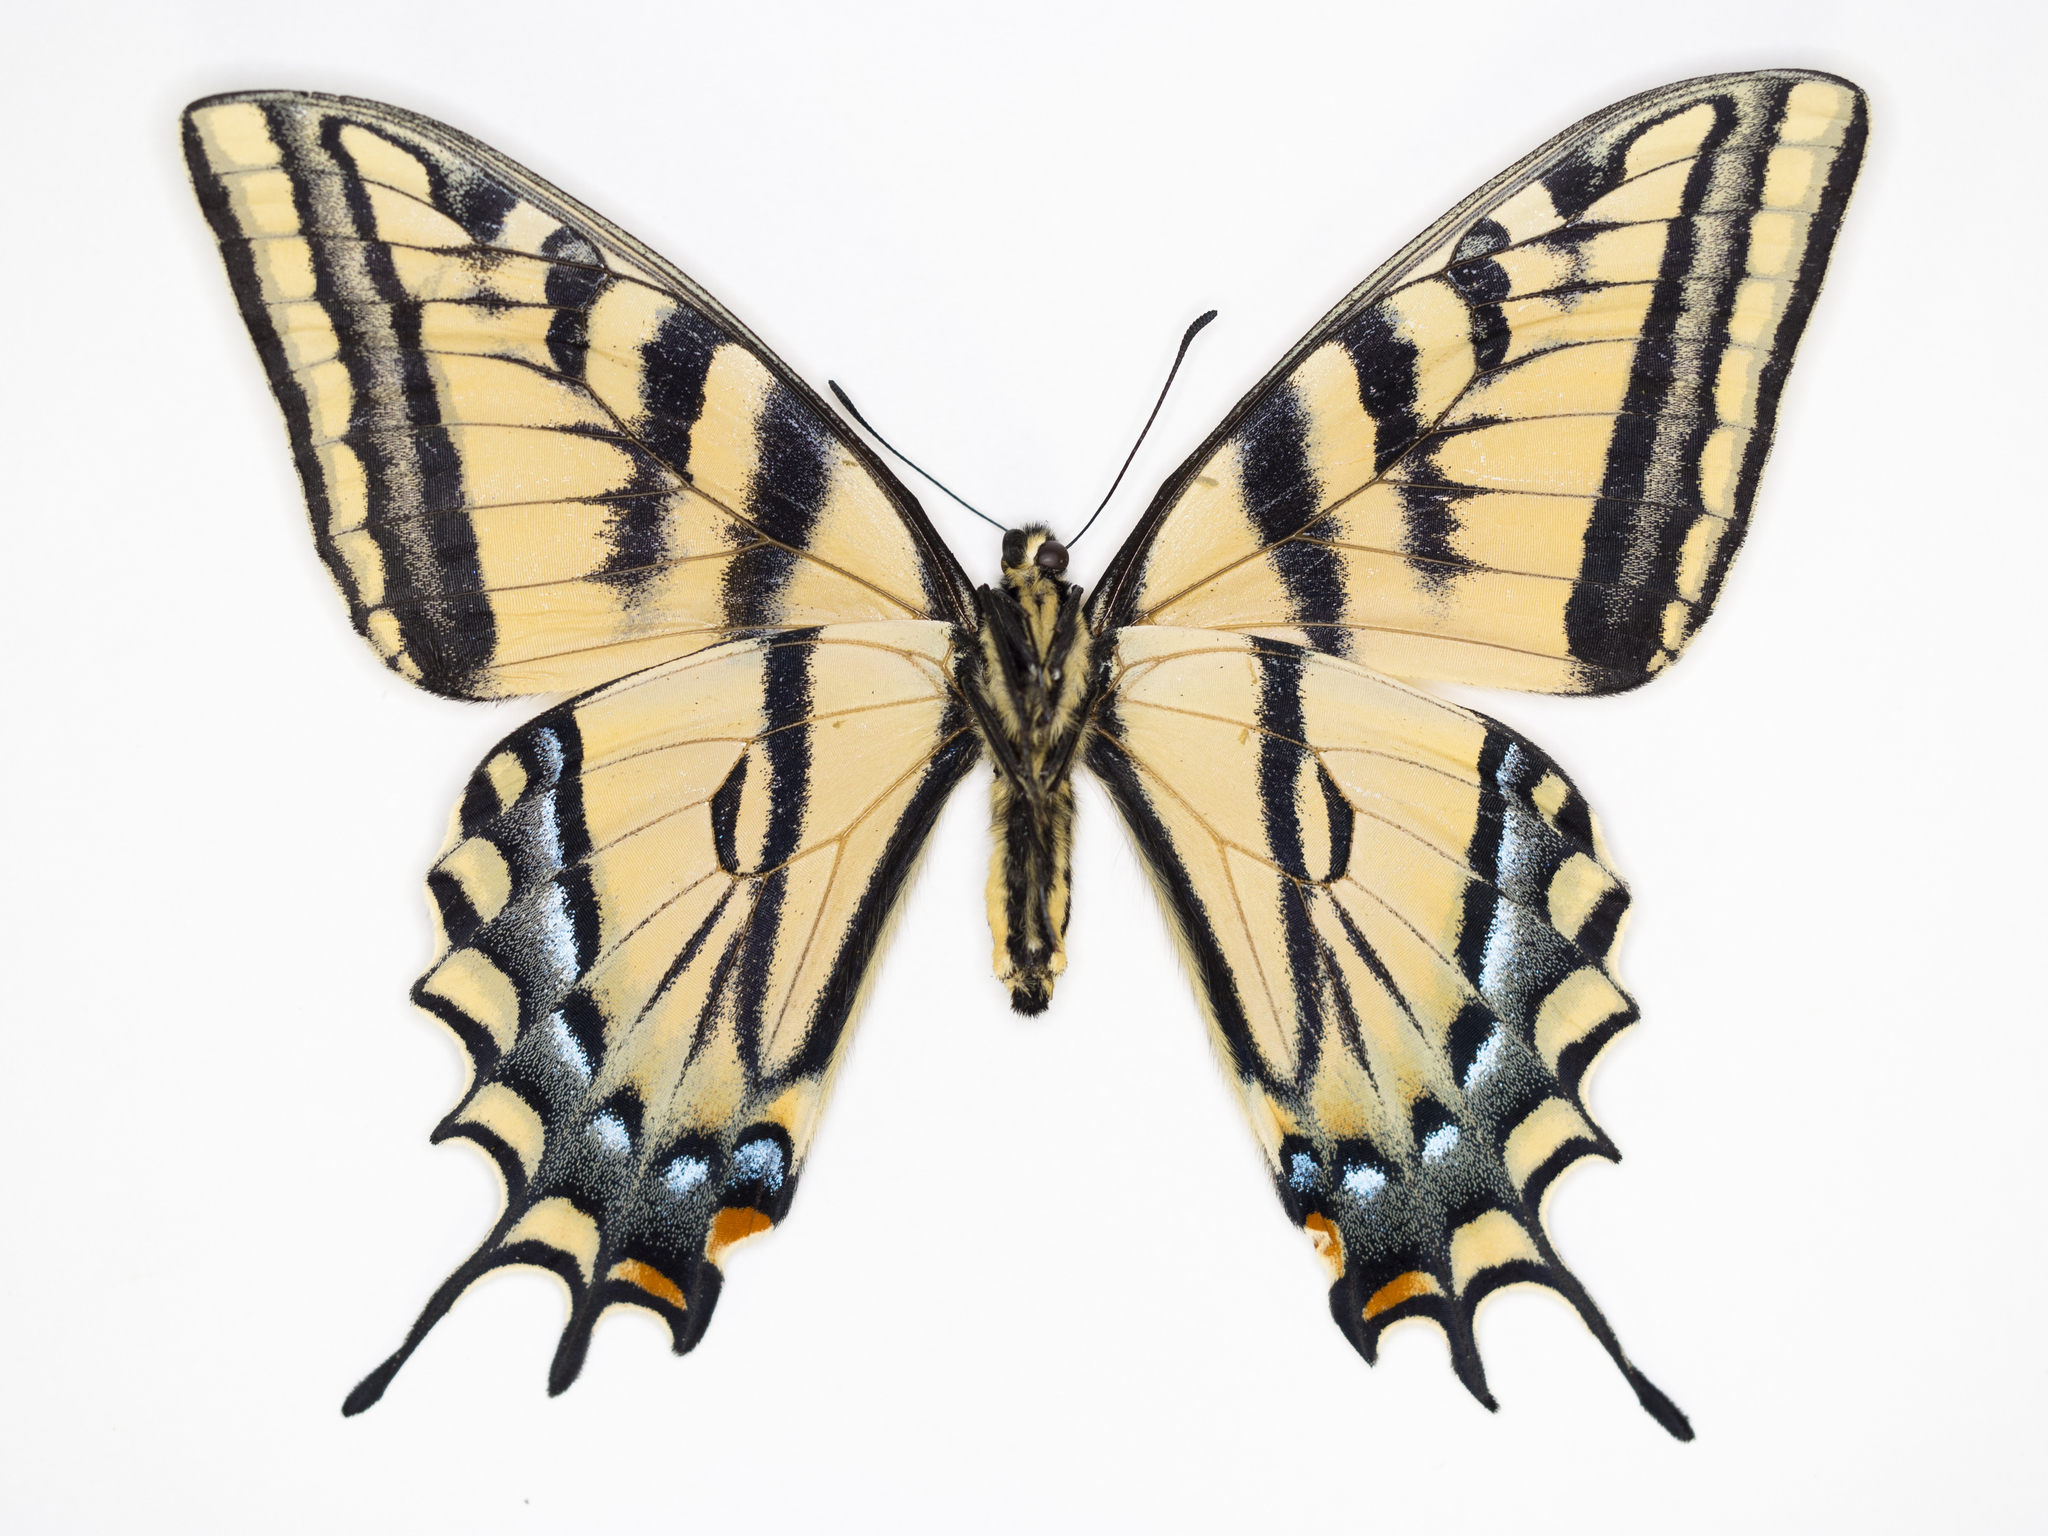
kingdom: Animalia
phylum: Arthropoda
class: Insecta
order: Lepidoptera
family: Papilionidae
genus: Papilio
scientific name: Papilio multicaudata
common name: Two-tailed tiger swallowtail
